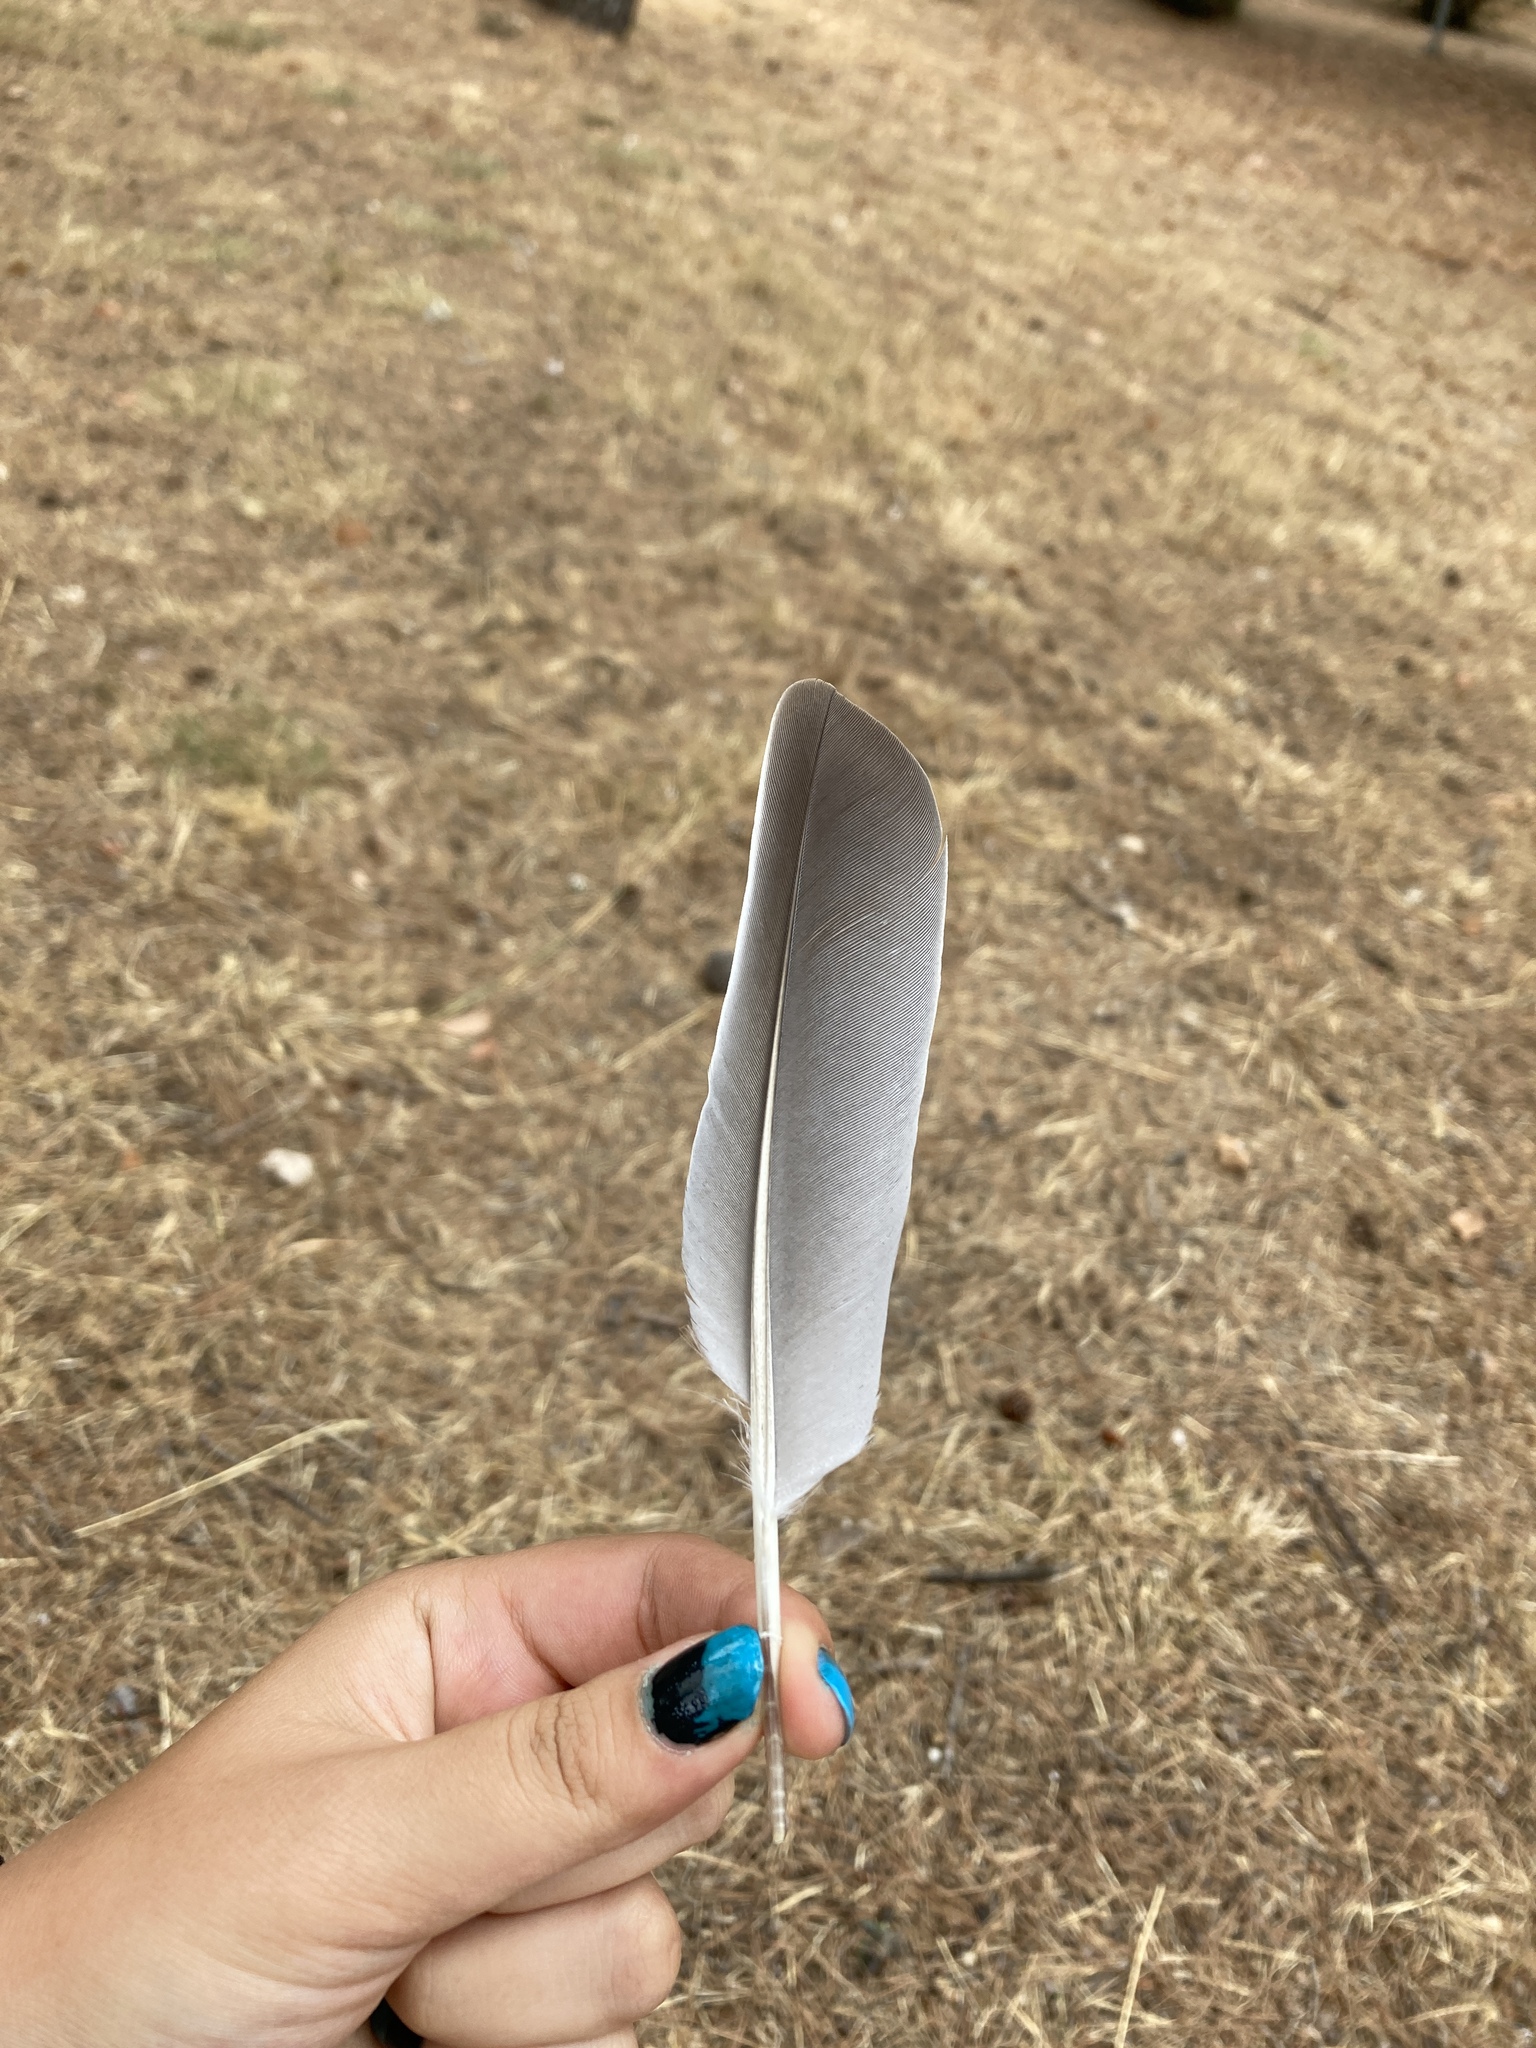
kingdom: Animalia
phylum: Chordata
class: Aves
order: Columbiformes
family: Columbidae
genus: Columba
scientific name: Columba palumbus
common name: Common wood pigeon
